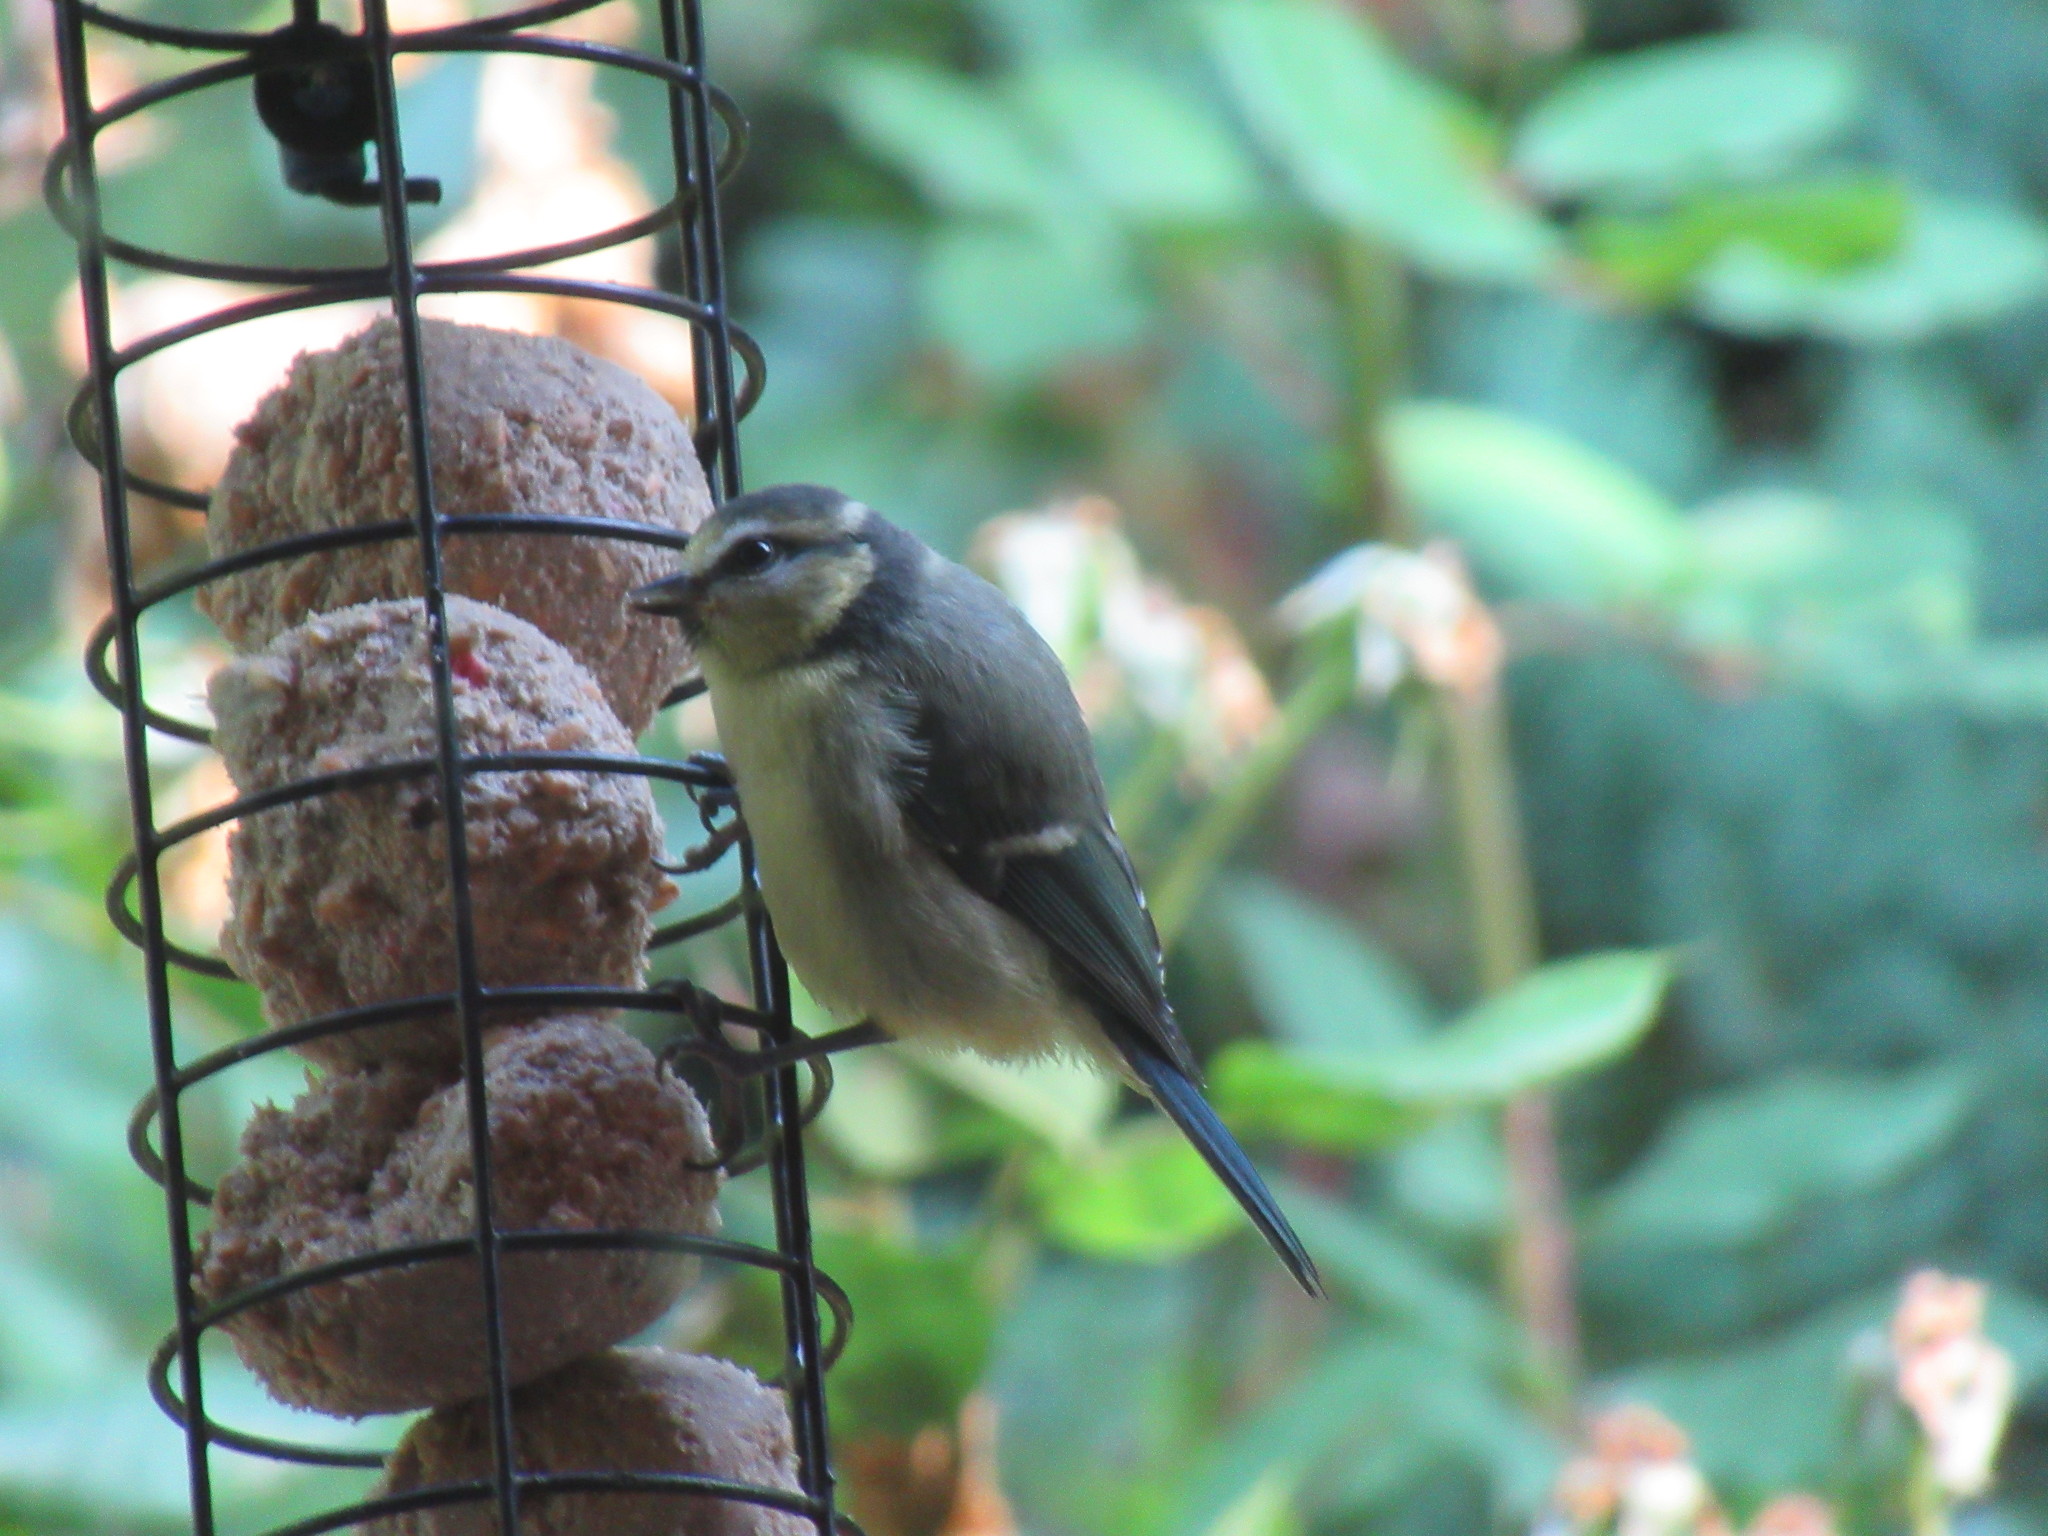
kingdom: Animalia
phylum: Chordata
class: Aves
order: Passeriformes
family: Paridae
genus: Cyanistes
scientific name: Cyanistes caeruleus
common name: Eurasian blue tit
